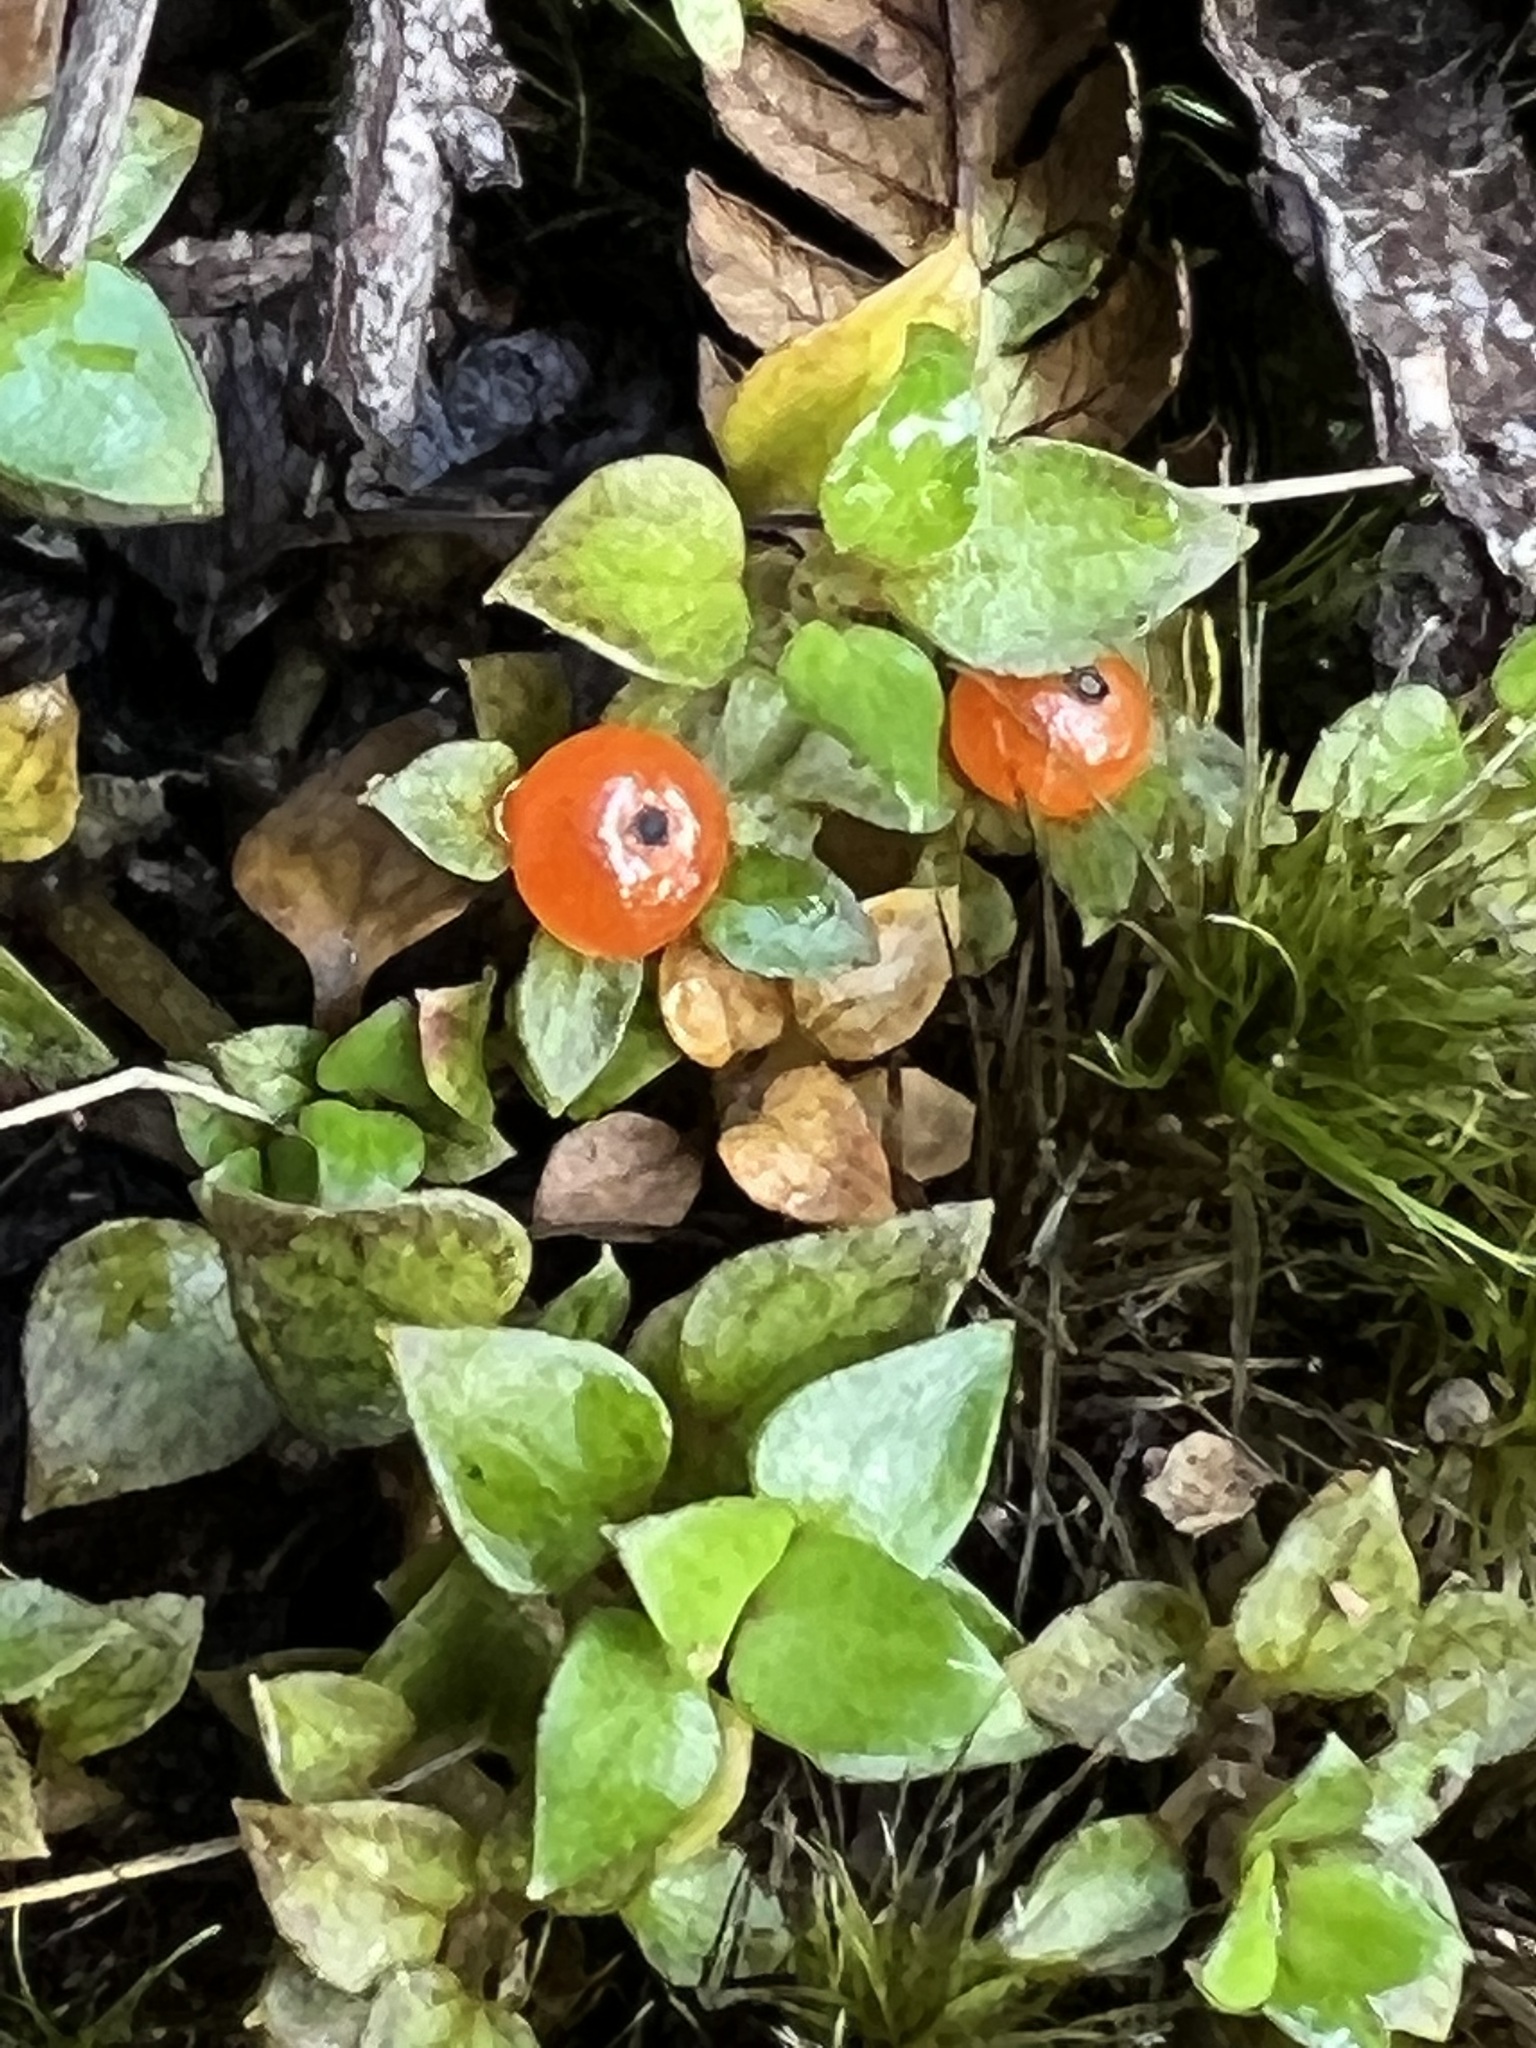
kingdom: Plantae
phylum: Tracheophyta
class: Magnoliopsida
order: Gentianales
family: Rubiaceae
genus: Nertera
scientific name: Nertera granadensis
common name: Beadplant
